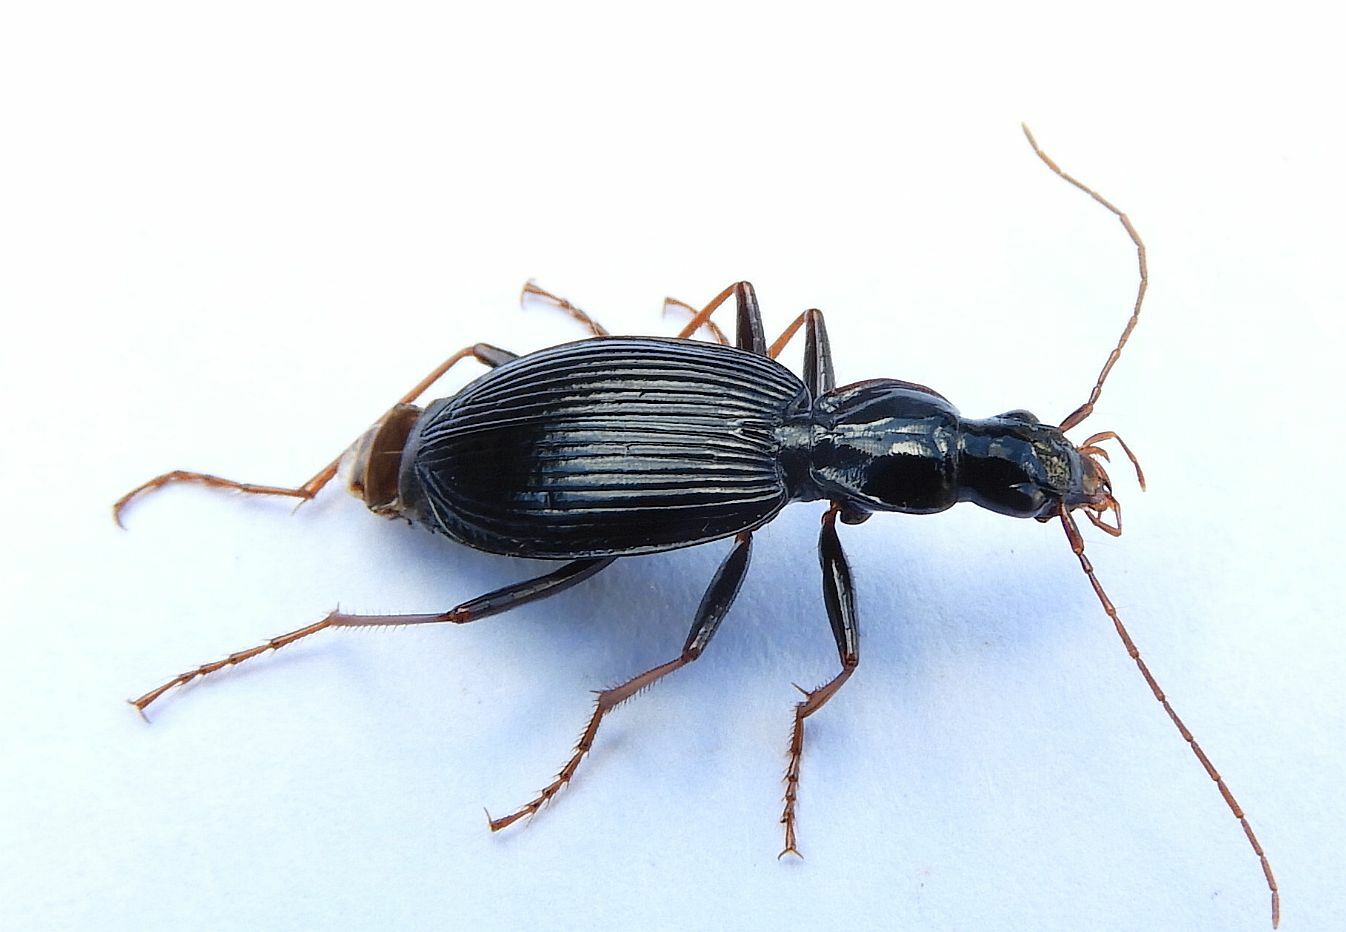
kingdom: Animalia
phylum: Arthropoda
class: Insecta
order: Coleoptera
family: Carabidae
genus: Platynus
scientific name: Platynus angustatus
